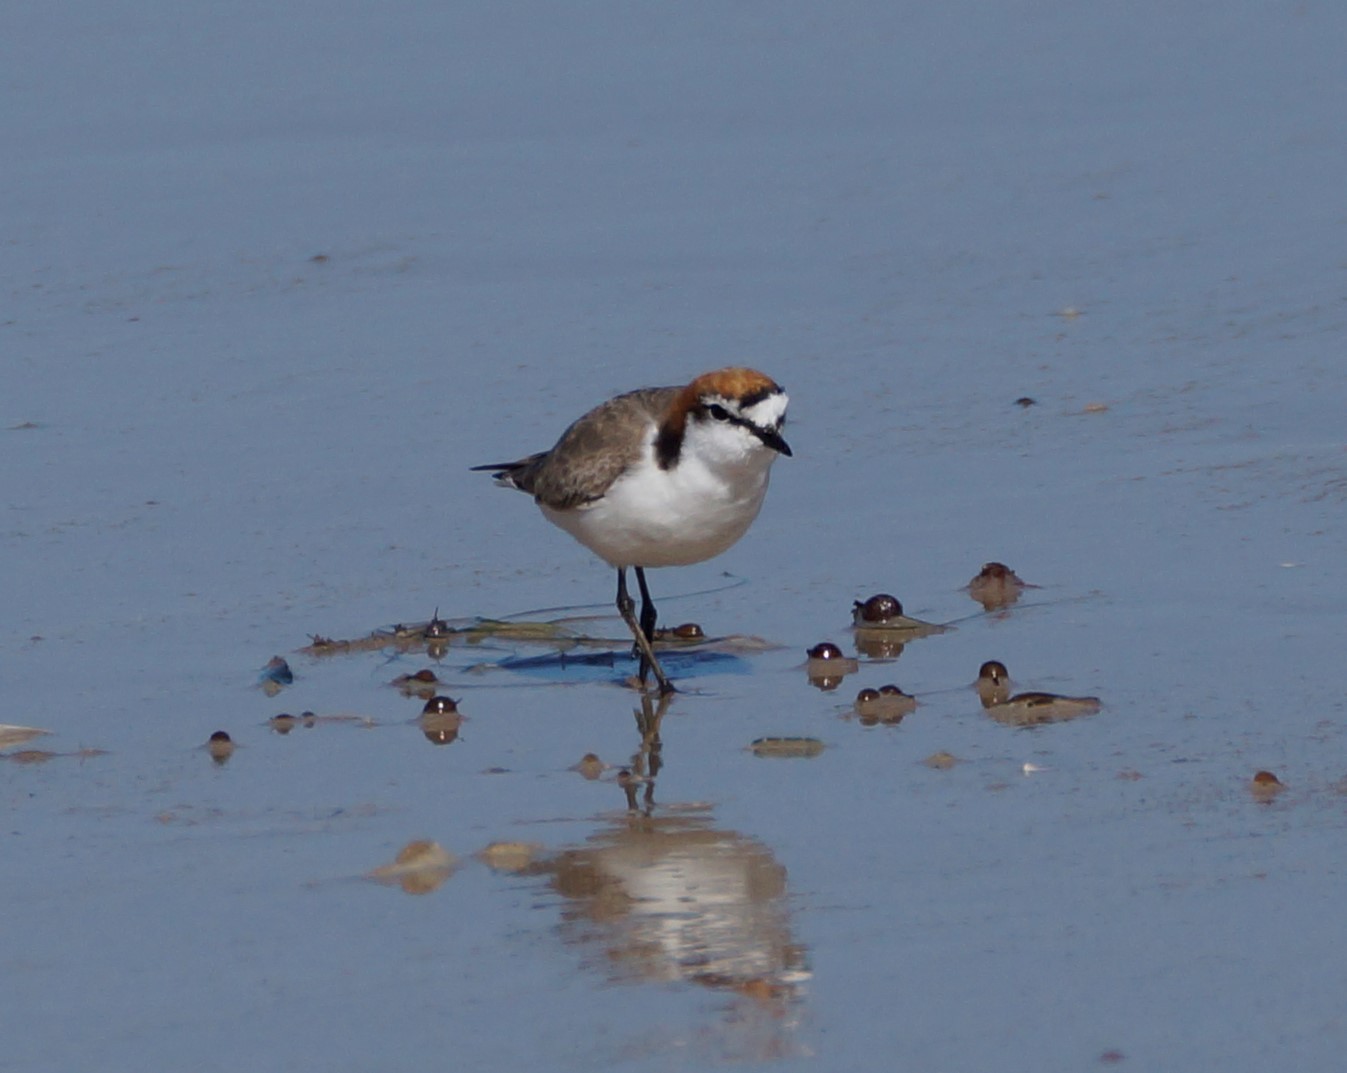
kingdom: Animalia
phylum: Chordata
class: Aves
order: Charadriiformes
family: Charadriidae
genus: Anarhynchus
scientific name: Anarhynchus
